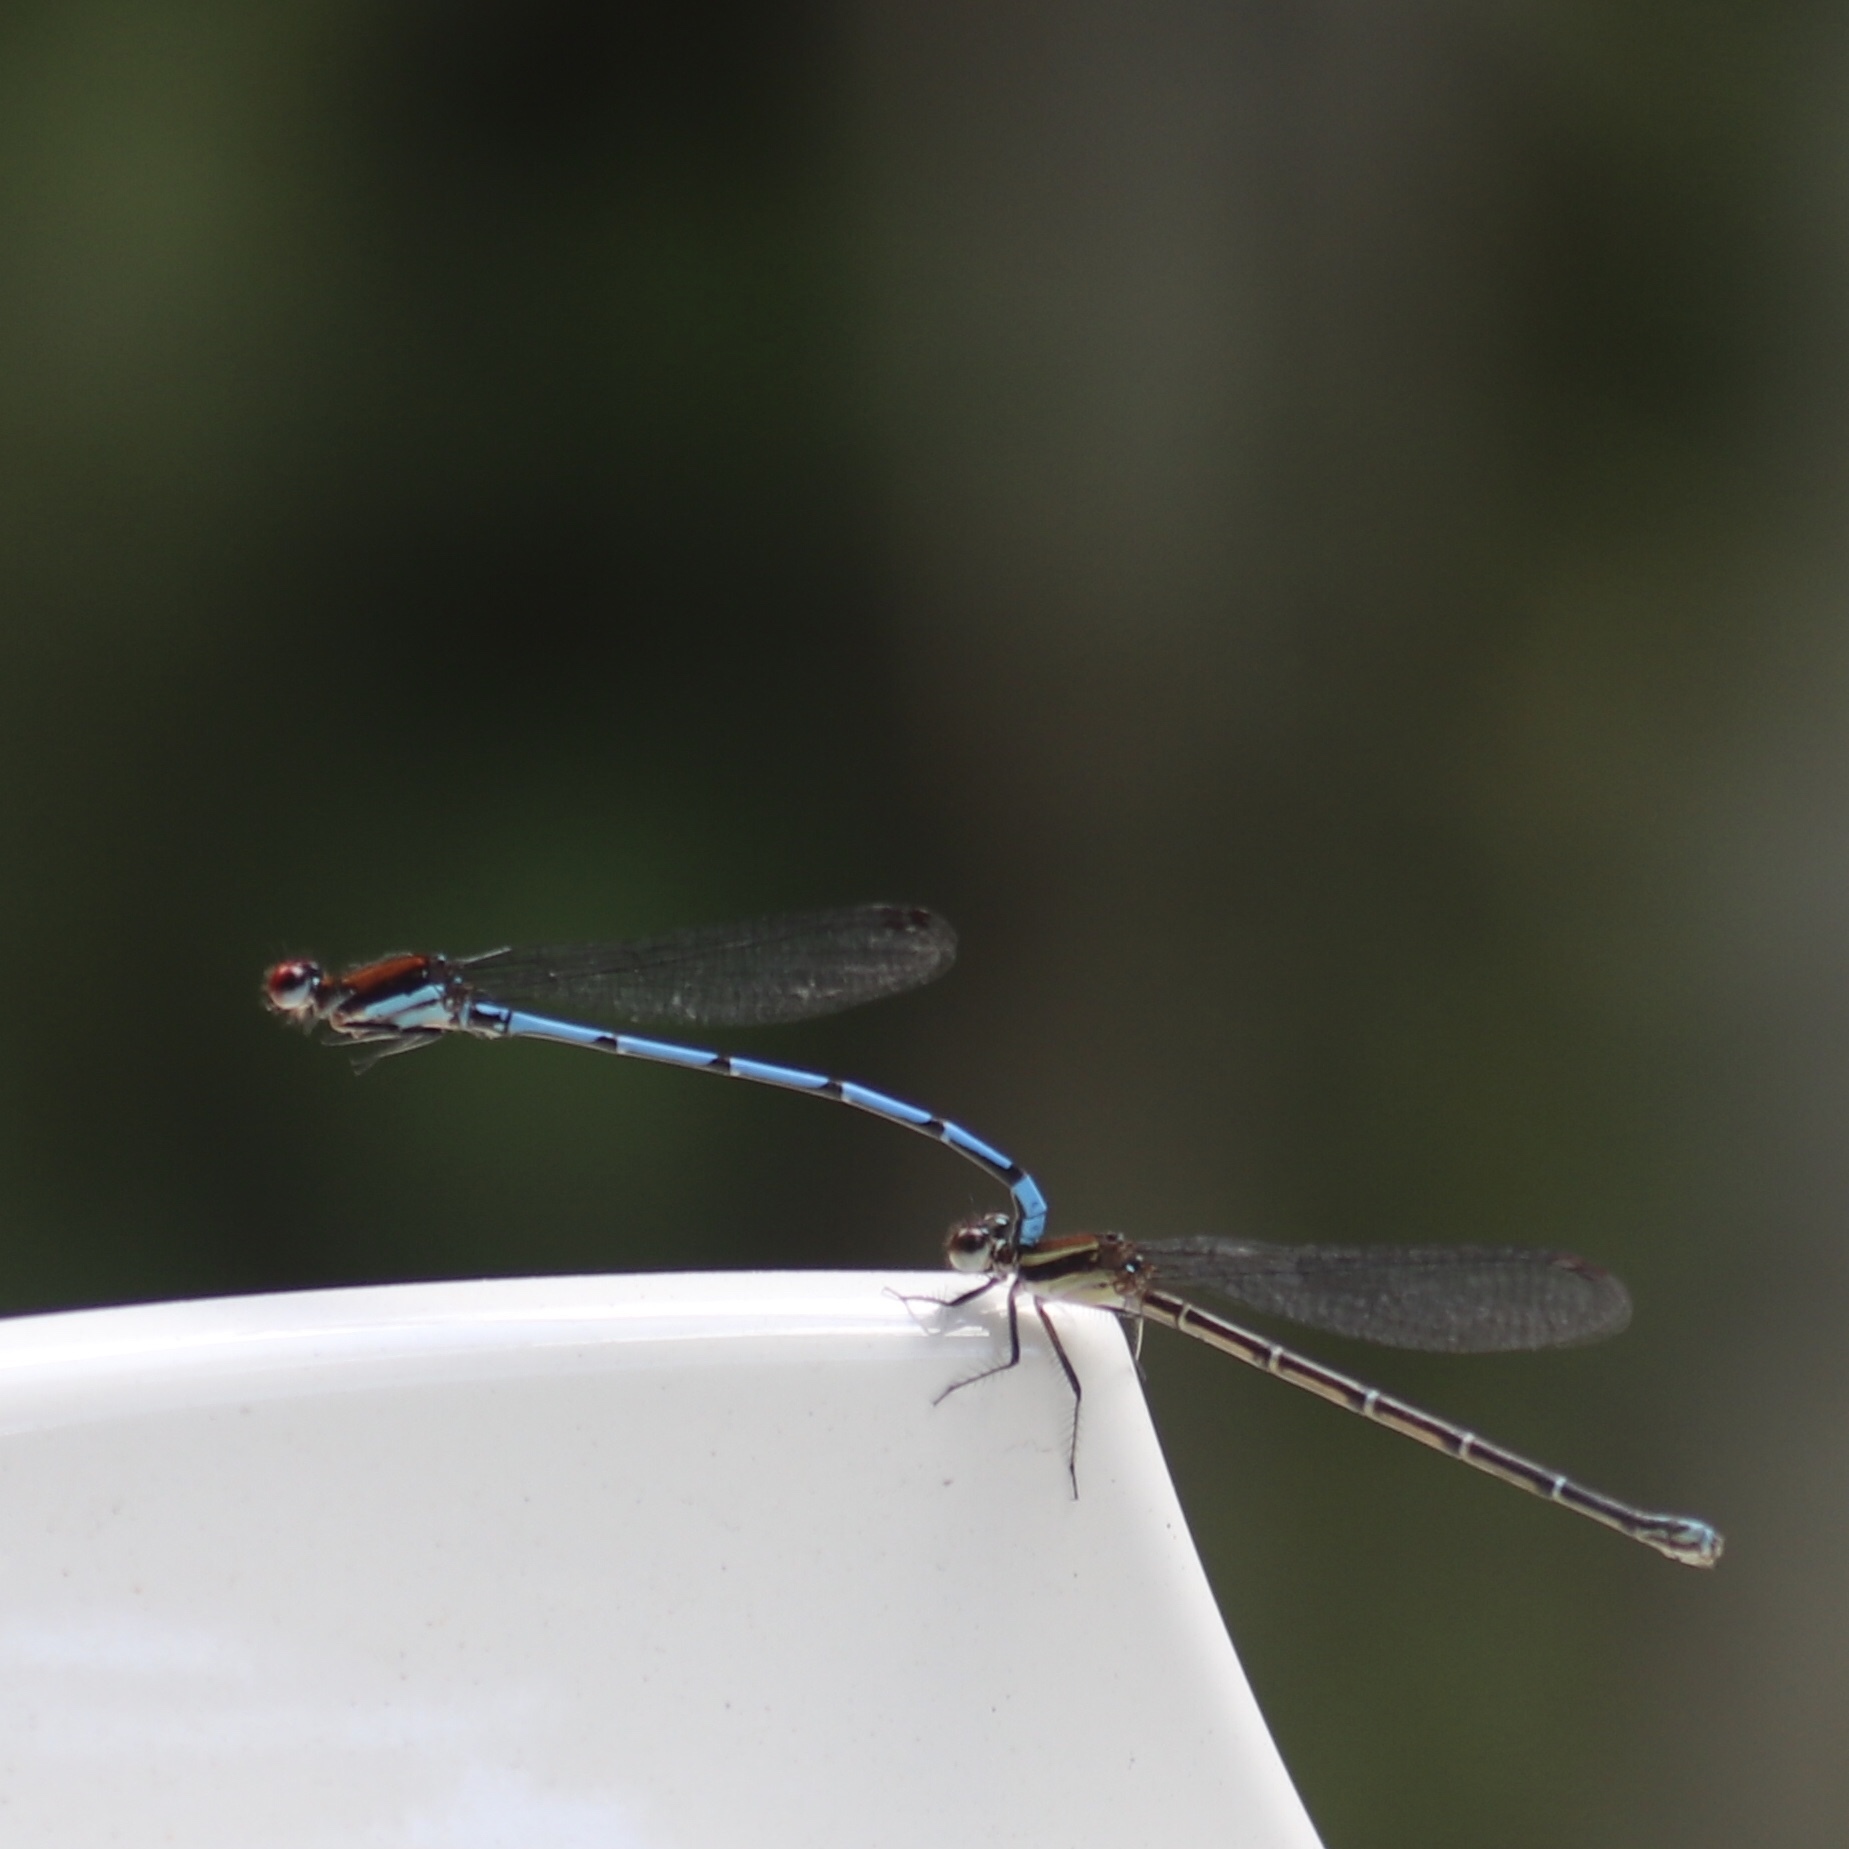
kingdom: Animalia
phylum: Arthropoda
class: Insecta
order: Odonata
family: Coenagrionidae
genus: Argia
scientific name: Argia oenea
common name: Fiery-eyed dancer
